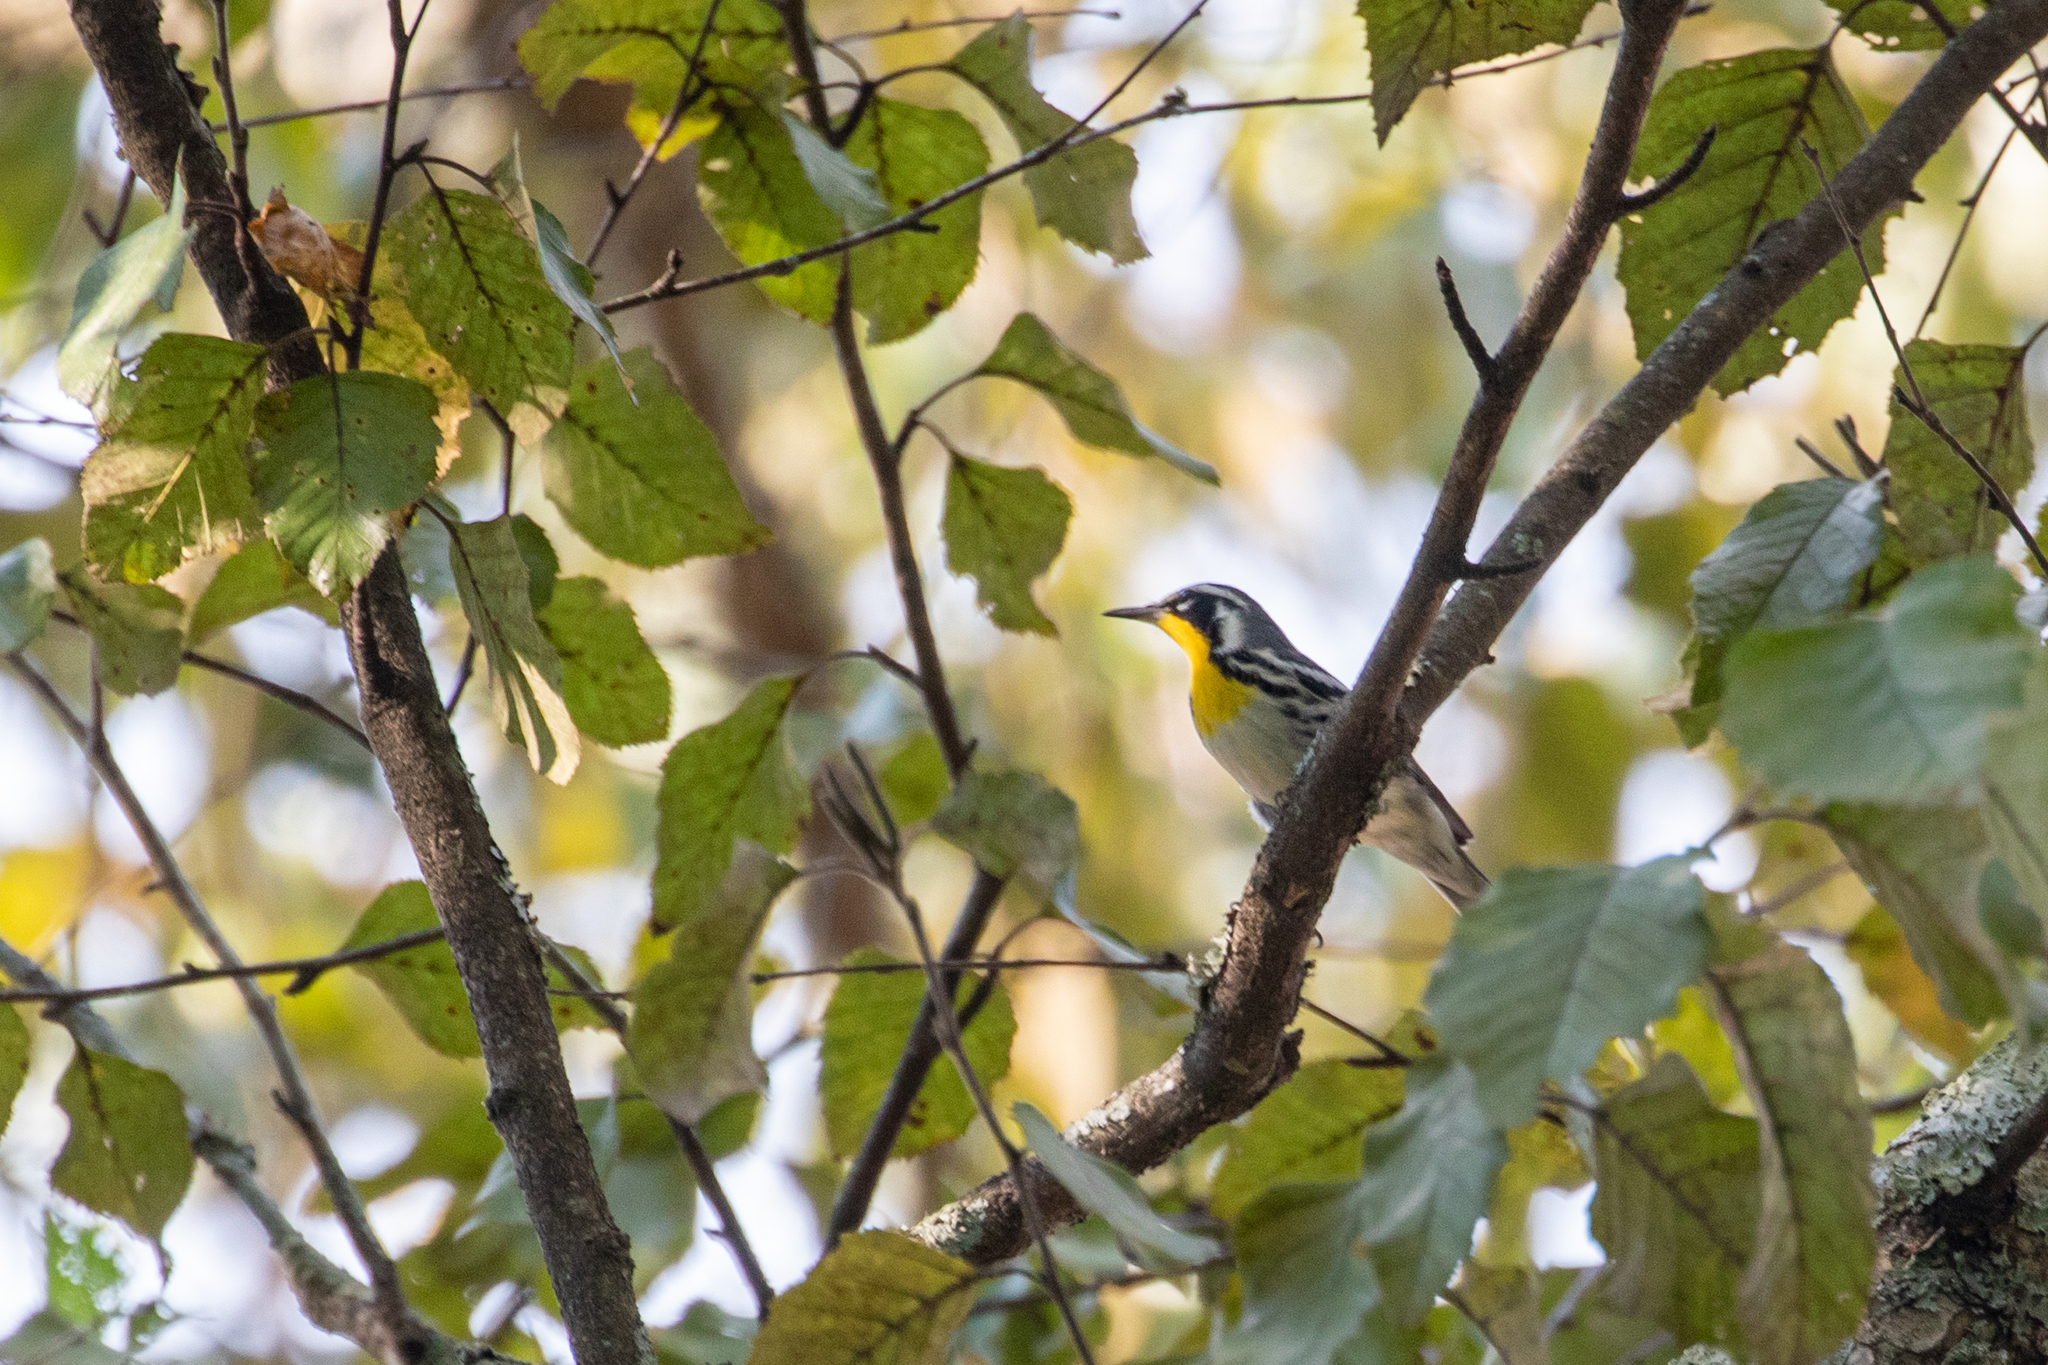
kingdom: Animalia
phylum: Chordata
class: Aves
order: Passeriformes
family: Parulidae
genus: Setophaga
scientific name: Setophaga dominica
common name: Yellow-throated warbler
